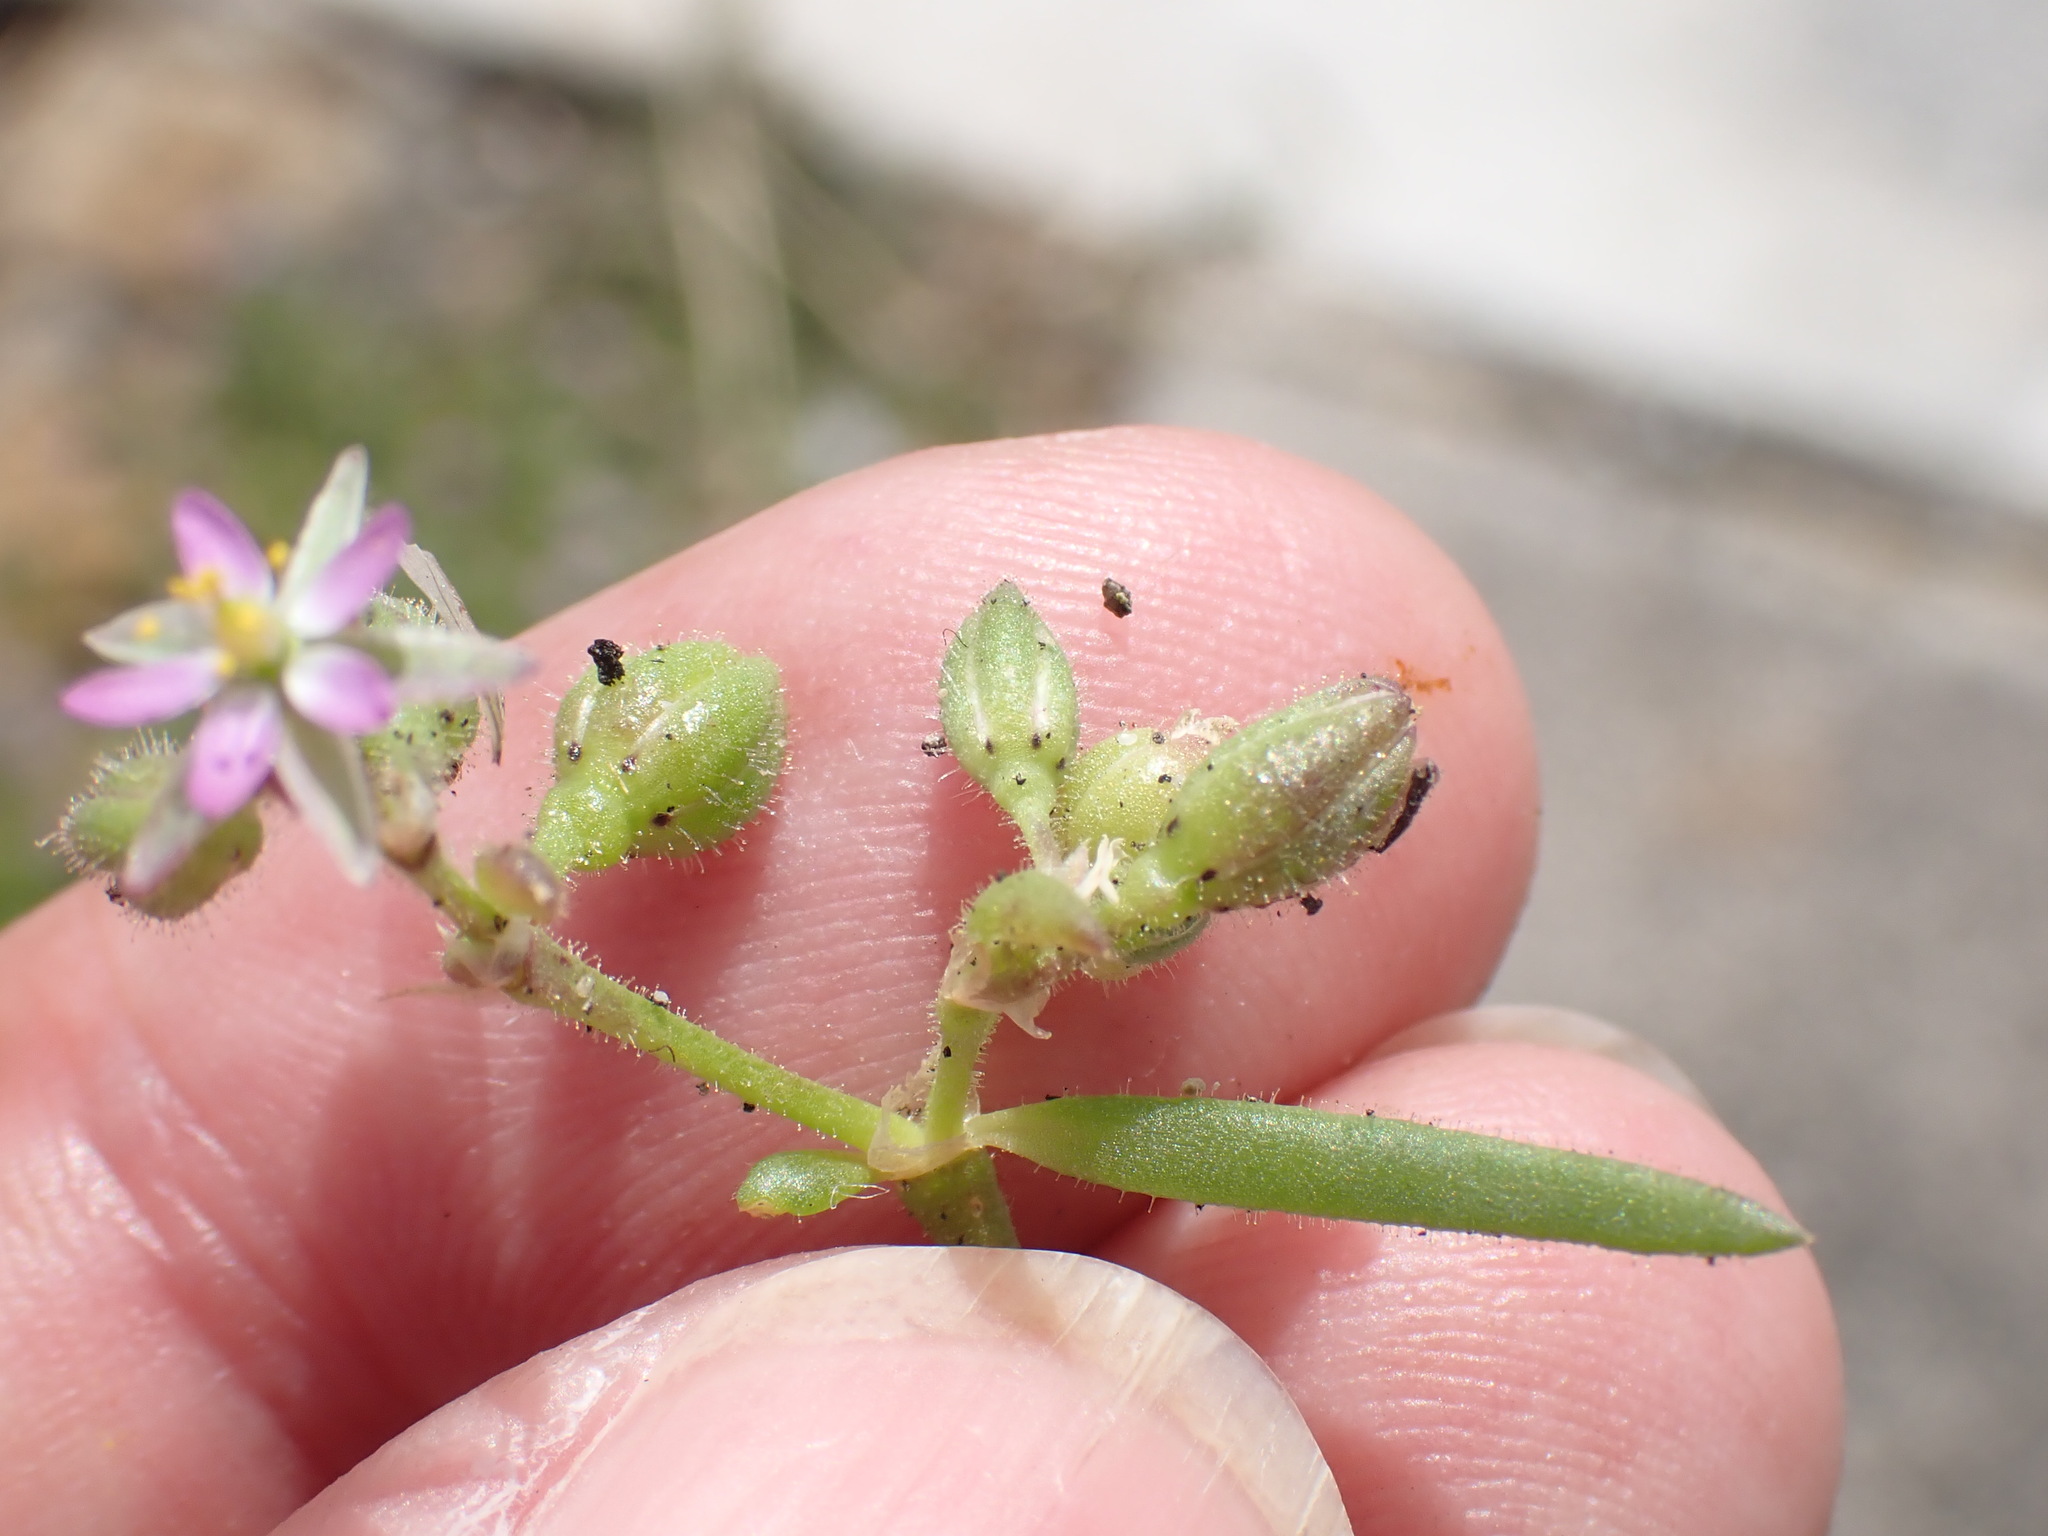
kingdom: Plantae
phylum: Tracheophyta
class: Magnoliopsida
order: Caryophyllales
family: Caryophyllaceae
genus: Spergularia
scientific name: Spergularia marina
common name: Lesser sea-spurrey
